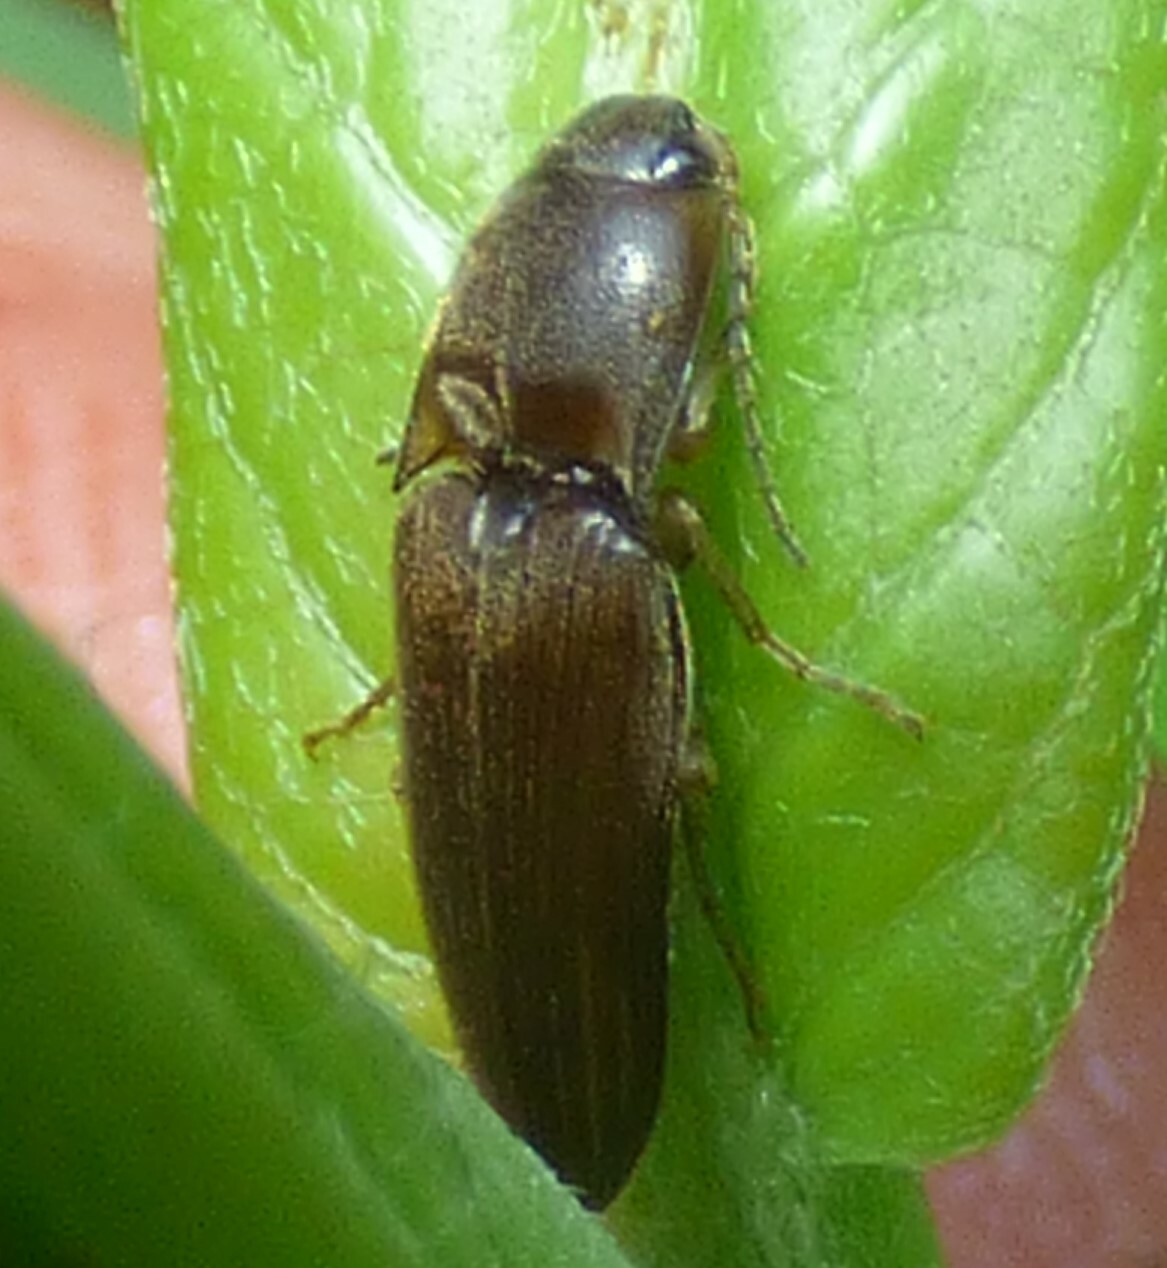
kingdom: Animalia
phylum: Arthropoda
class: Insecta
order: Coleoptera
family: Elateridae
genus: Monocrepidius
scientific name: Monocrepidius
